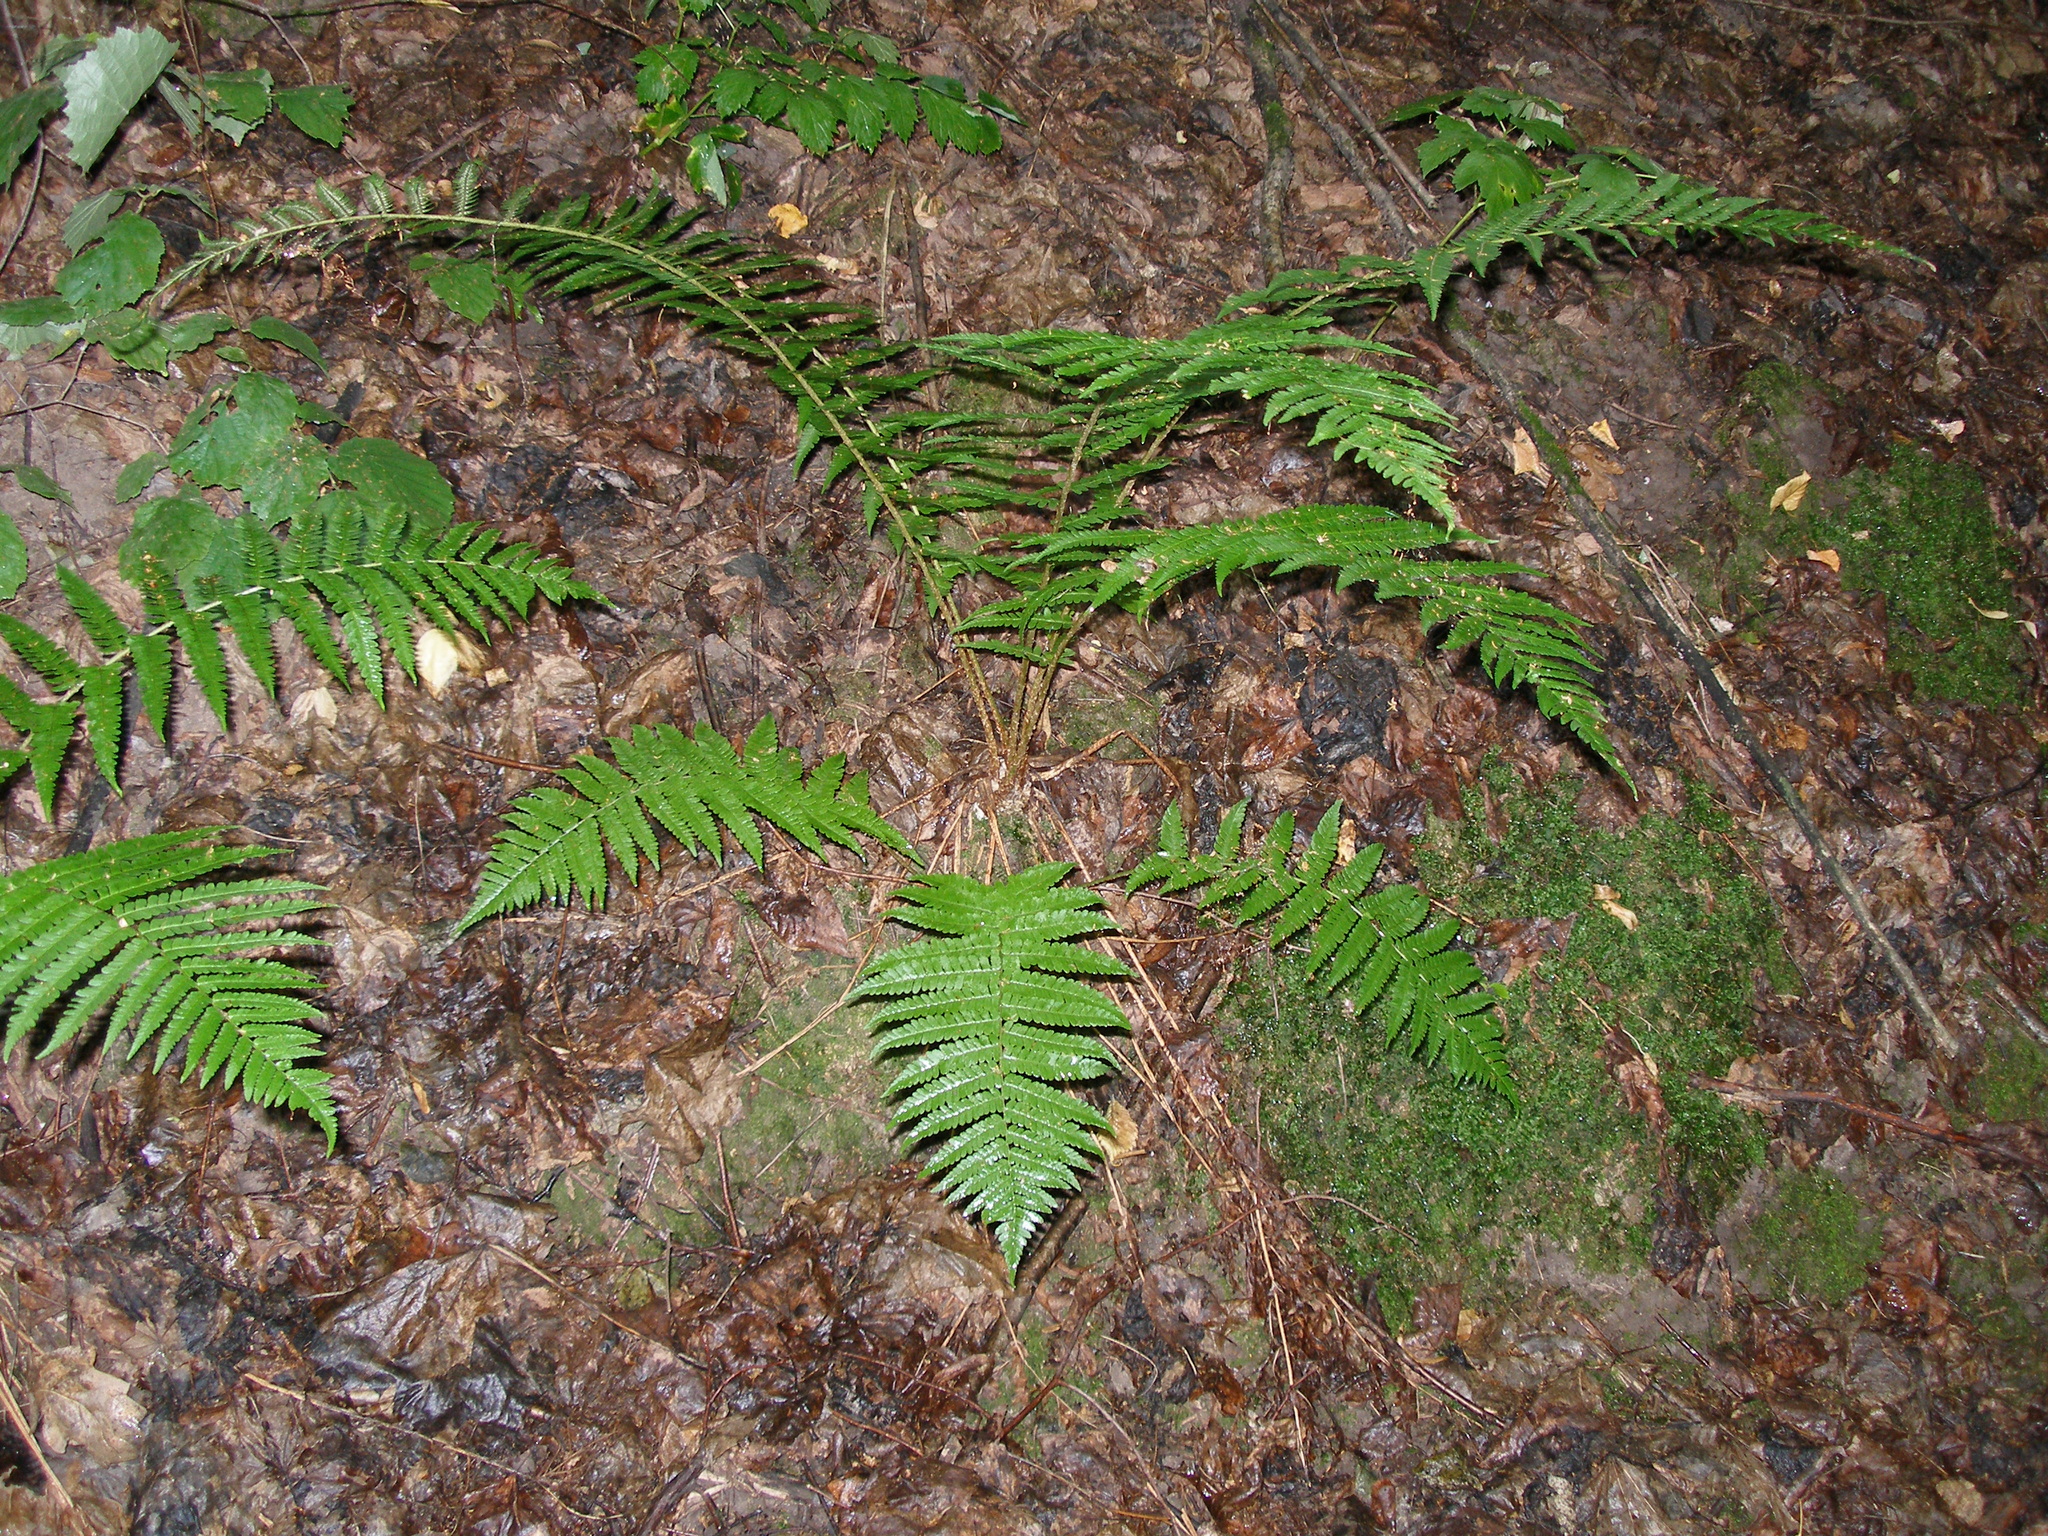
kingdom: Plantae
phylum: Tracheophyta
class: Polypodiopsida
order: Polypodiales
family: Dryopteridaceae
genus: Dryopteris
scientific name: Dryopteris filix-mas
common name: Male fern
